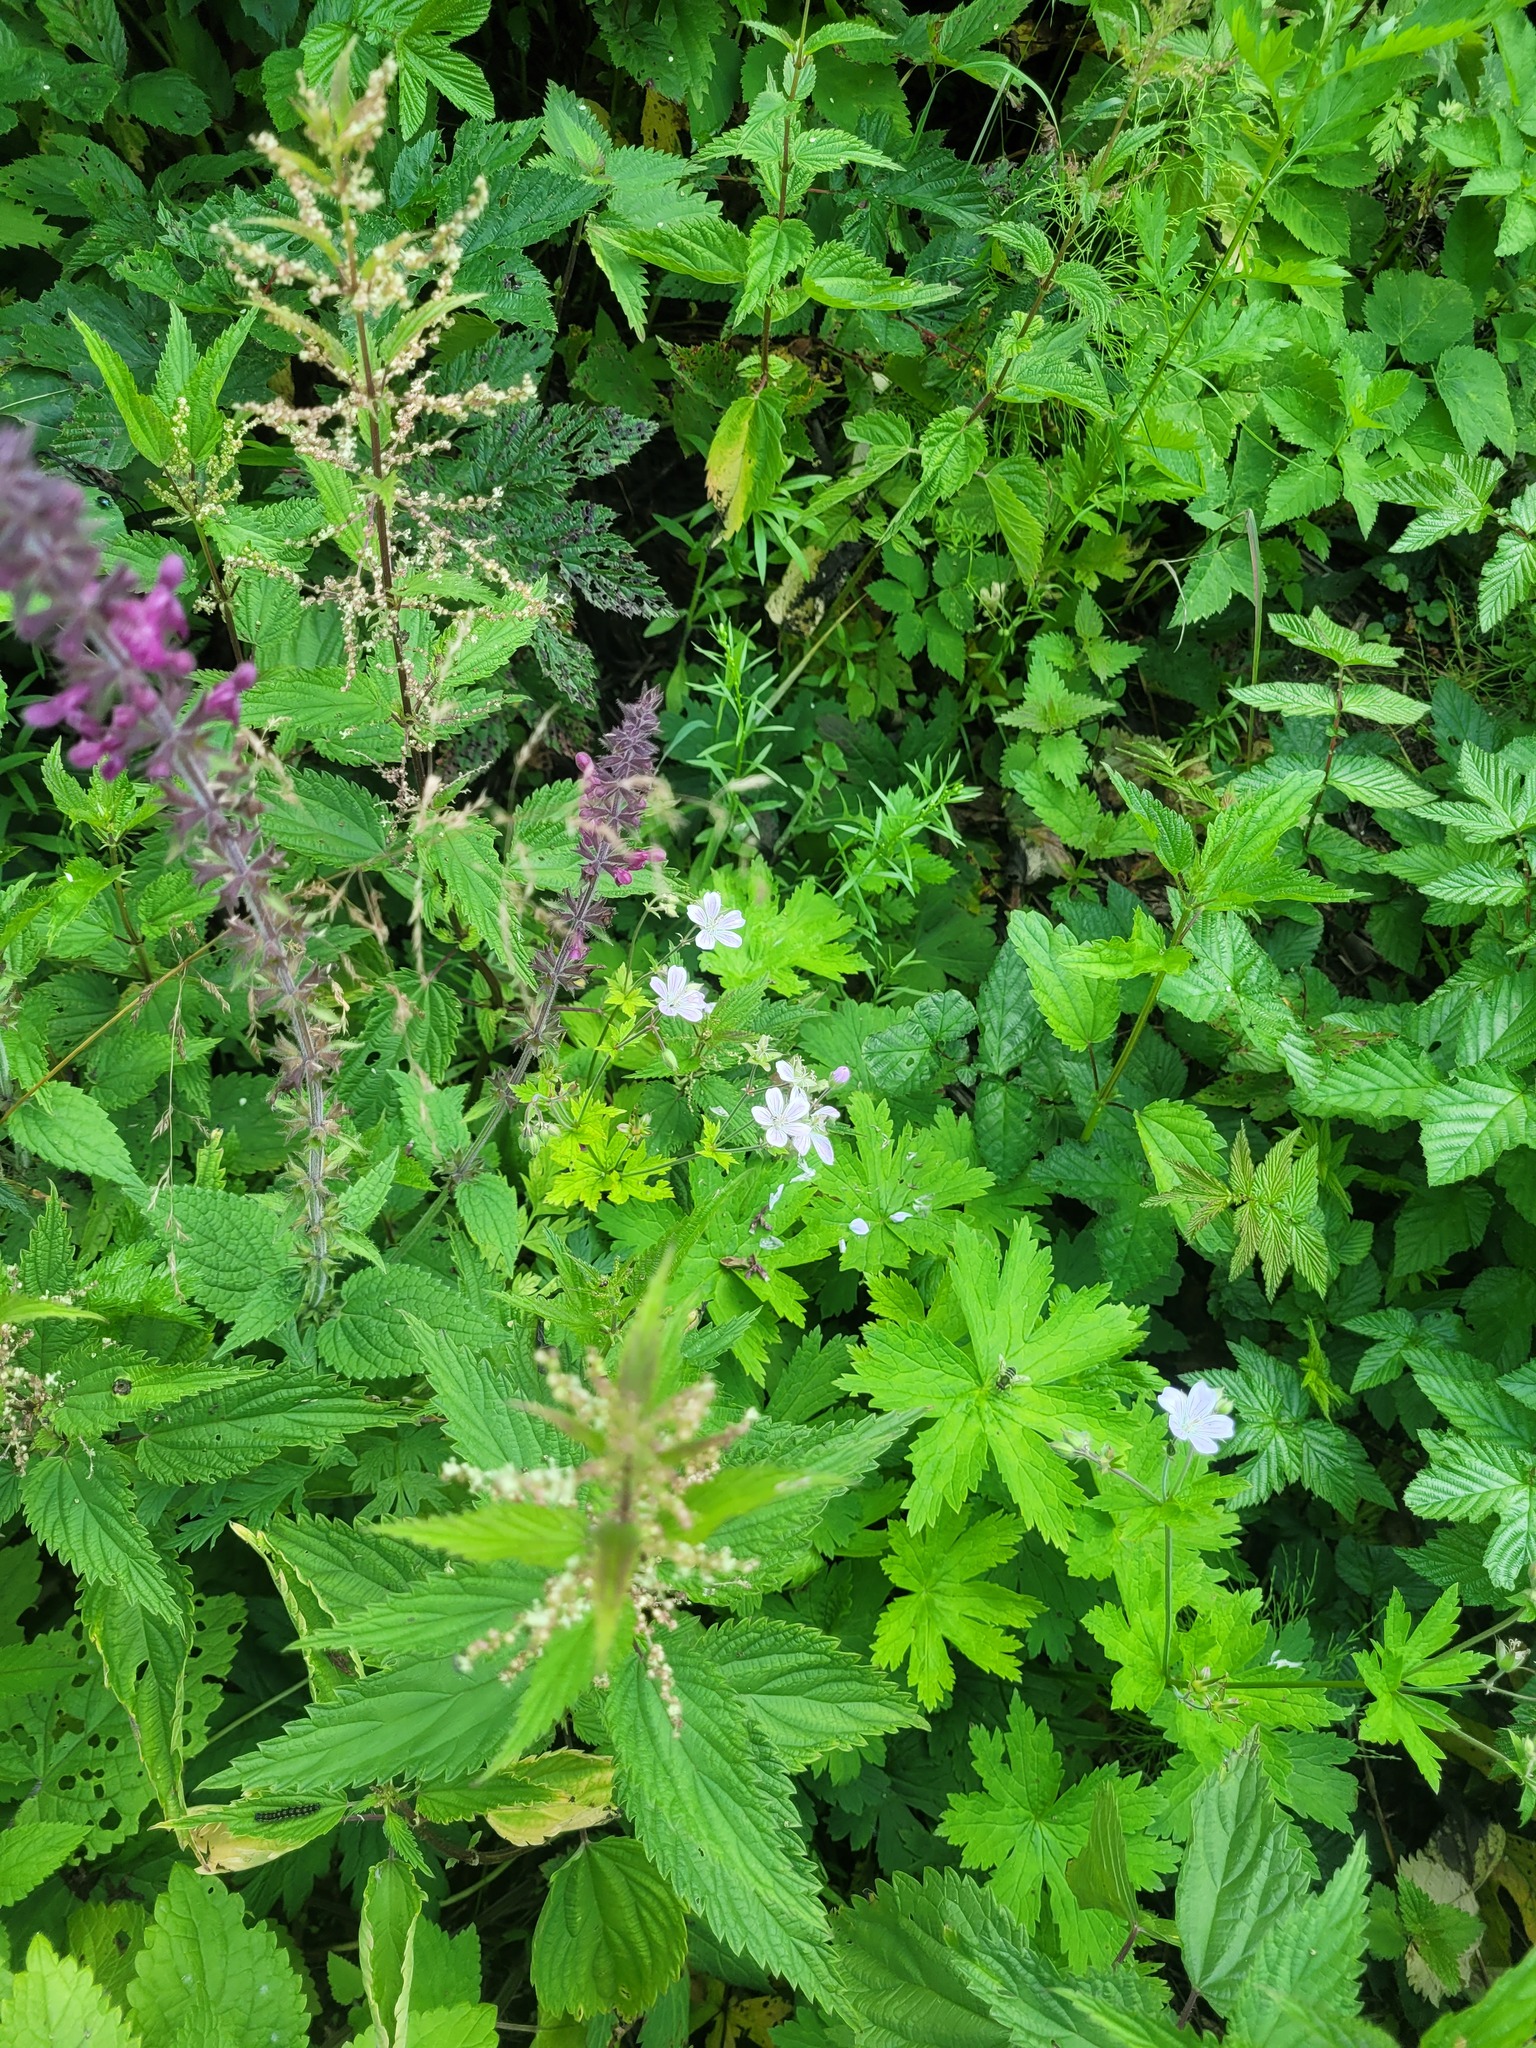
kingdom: Plantae
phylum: Tracheophyta
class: Magnoliopsida
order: Geraniales
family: Geraniaceae
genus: Geranium
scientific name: Geranium sylvaticum
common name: Wood crane's-bill
